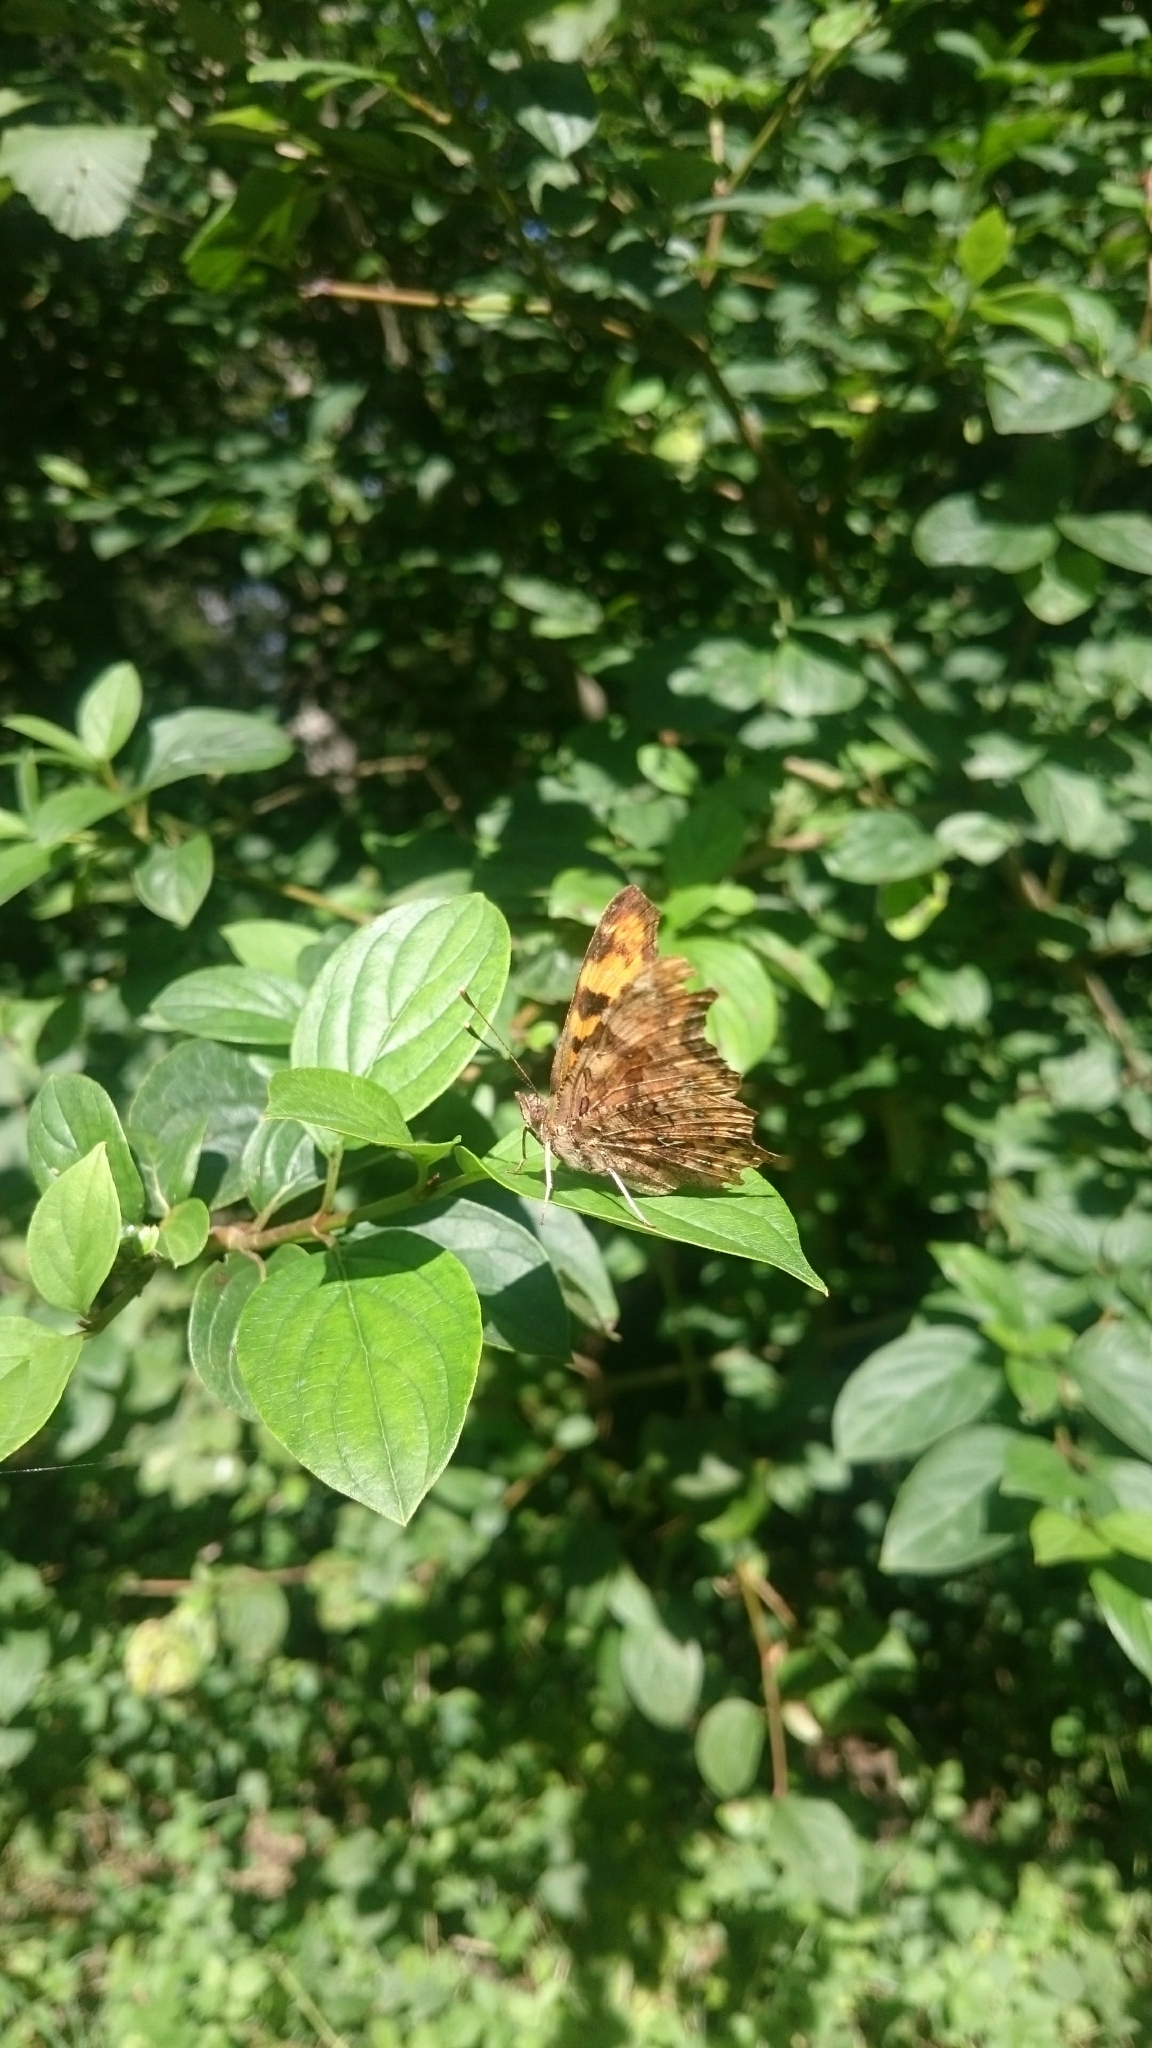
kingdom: Animalia
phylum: Arthropoda
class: Insecta
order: Lepidoptera
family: Nymphalidae
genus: Polygonia
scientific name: Polygonia c-album
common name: Comma
